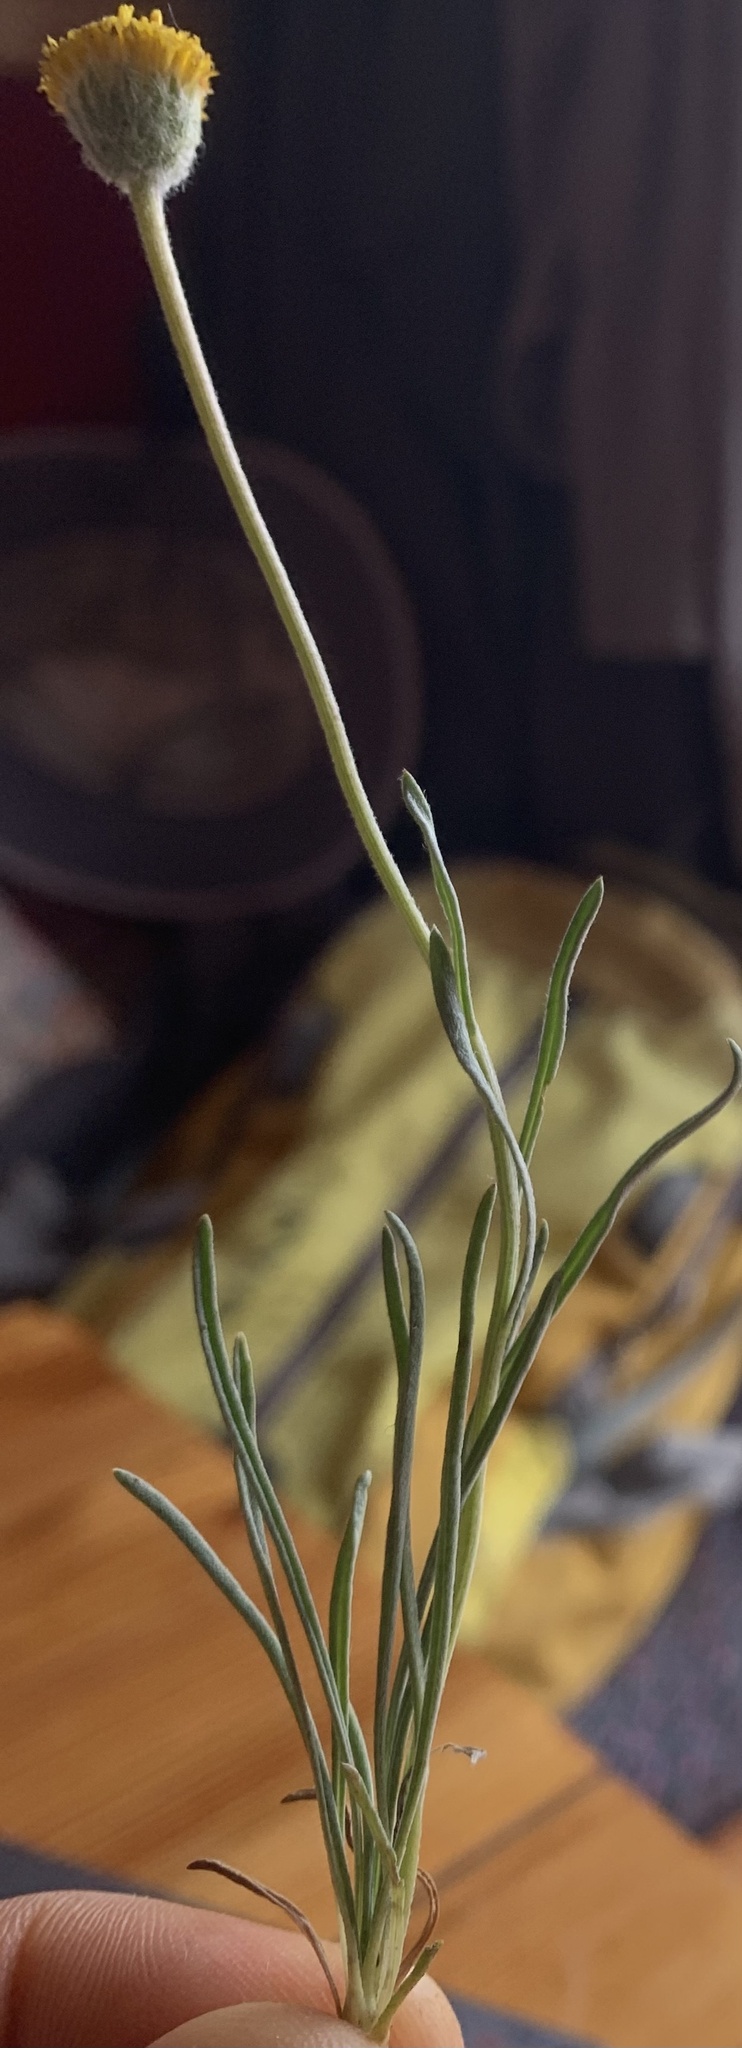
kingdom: Plantae
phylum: Tracheophyta
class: Magnoliopsida
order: Asterales
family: Asteraceae
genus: Erigeron
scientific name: Erigeron bloomeri
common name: Bloomer's fleabane
